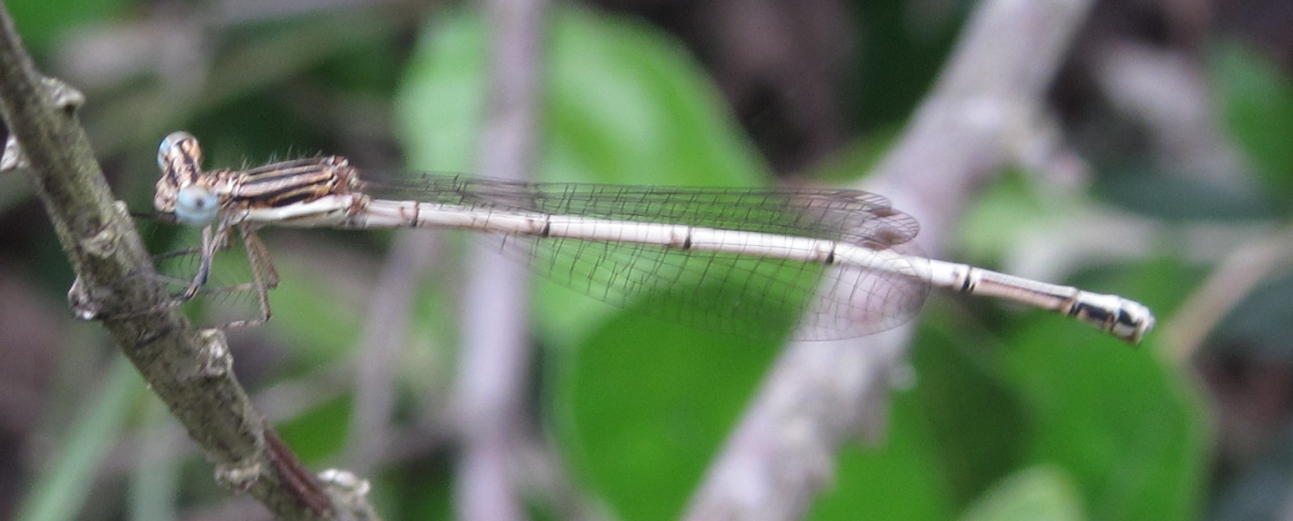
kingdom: Animalia
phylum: Arthropoda
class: Insecta
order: Odonata
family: Platycnemididae
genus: Elattoneura
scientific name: Elattoneura glauca
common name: Common threadtail
